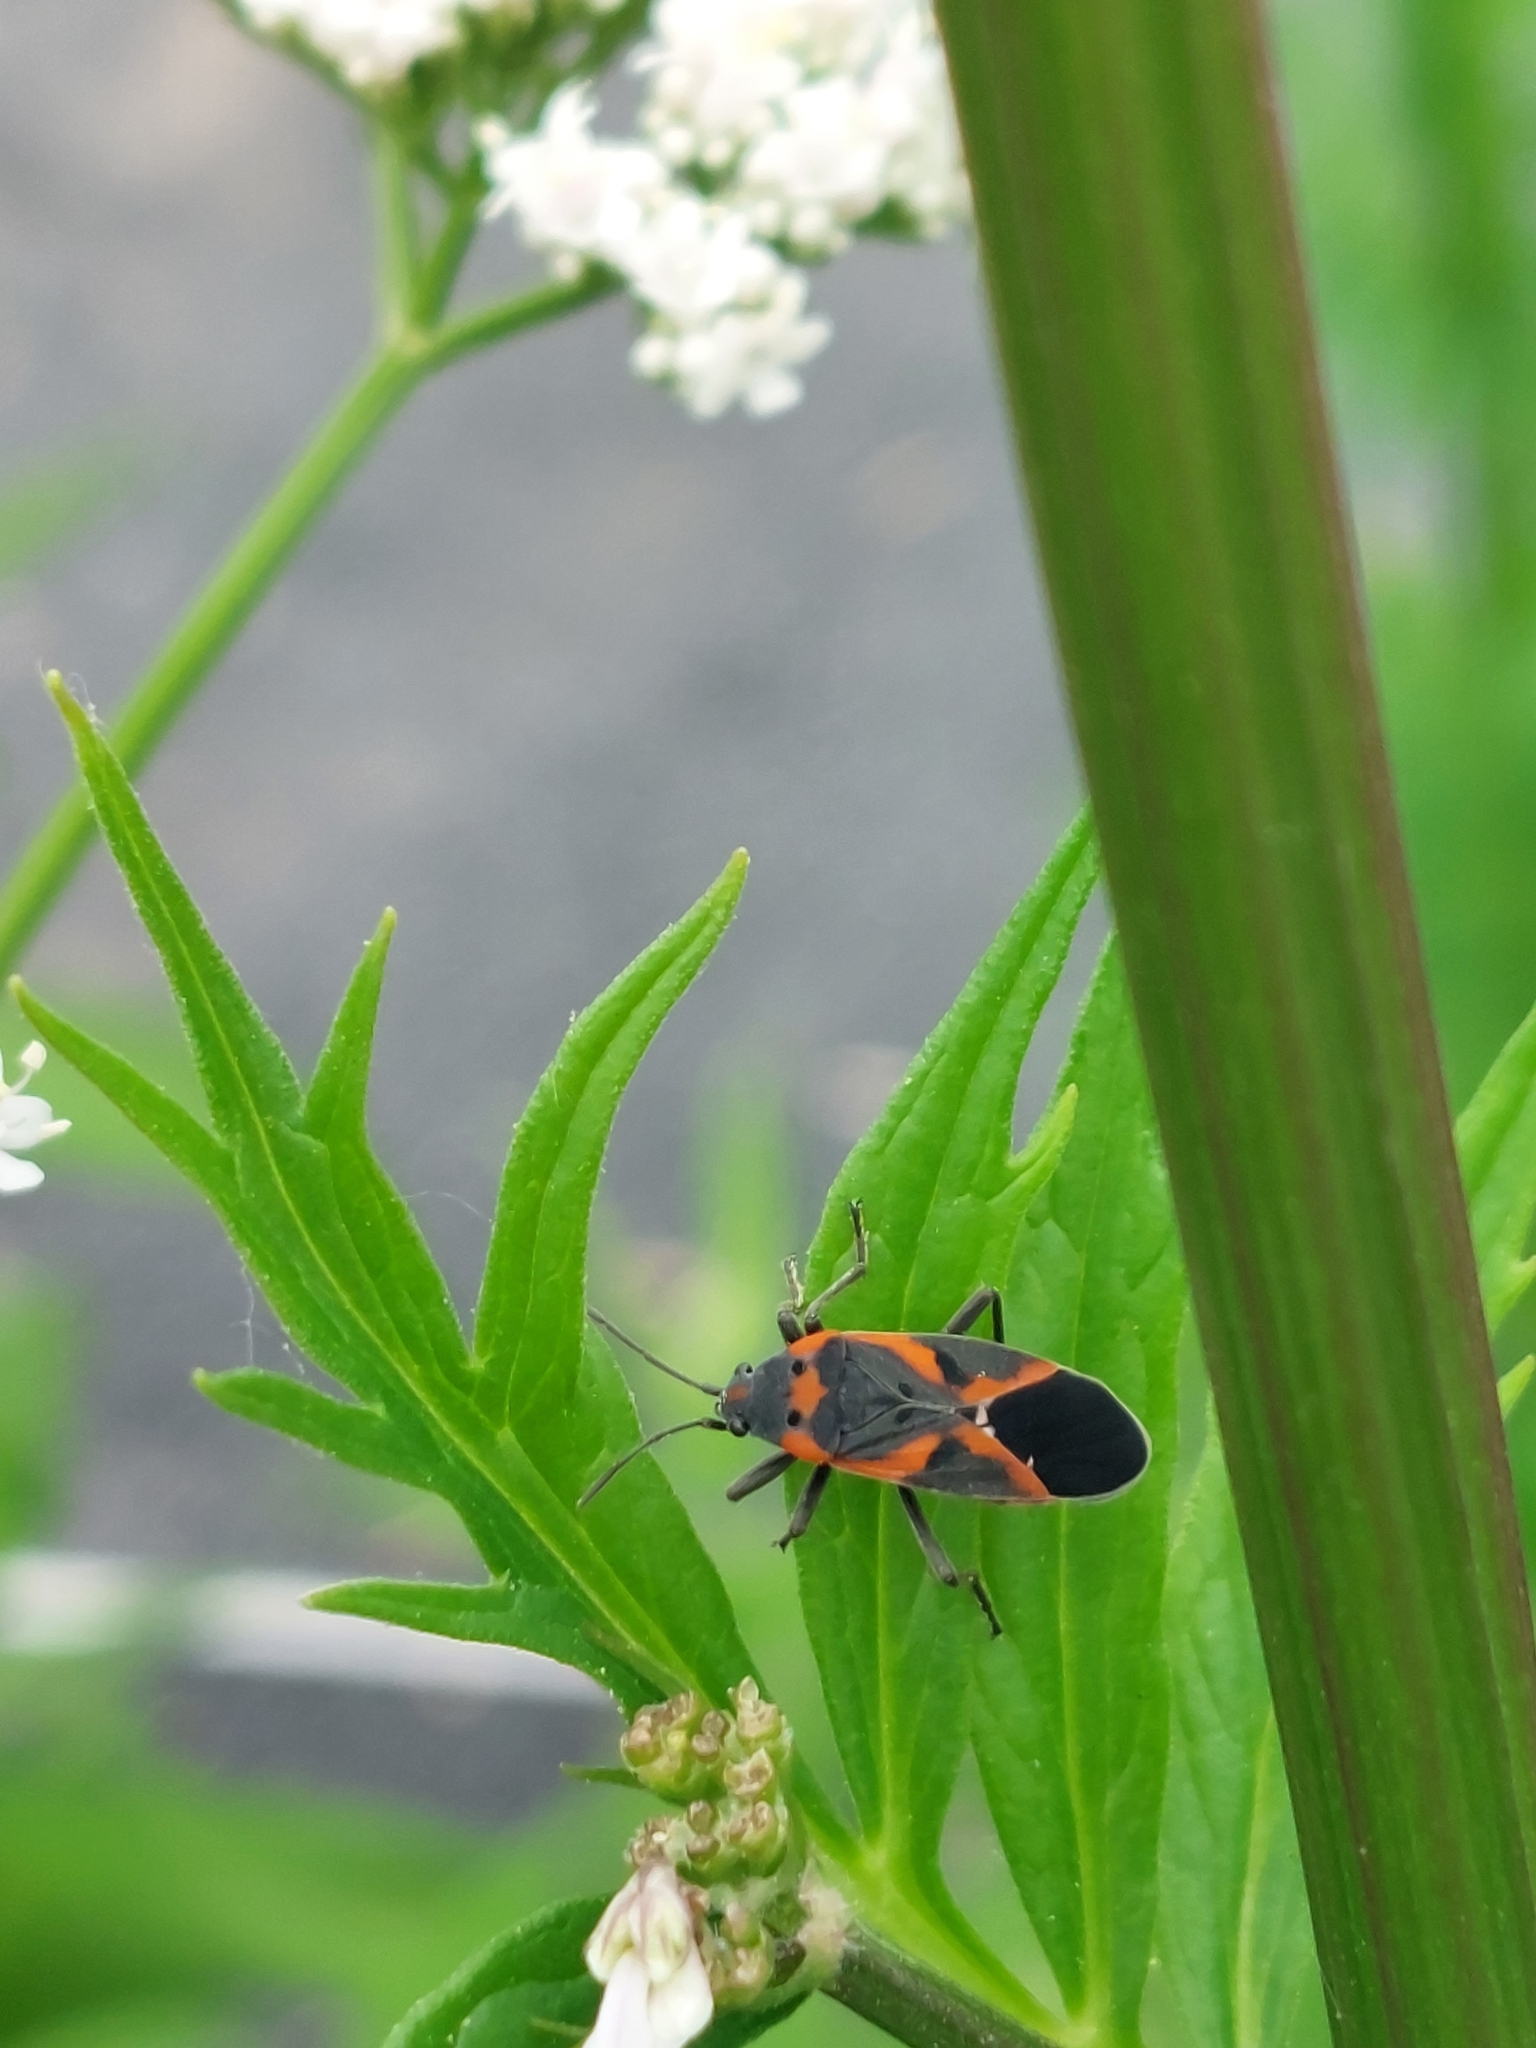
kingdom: Animalia
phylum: Arthropoda
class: Insecta
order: Hemiptera
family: Lygaeidae
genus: Lygaeus
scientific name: Lygaeus kalmii
